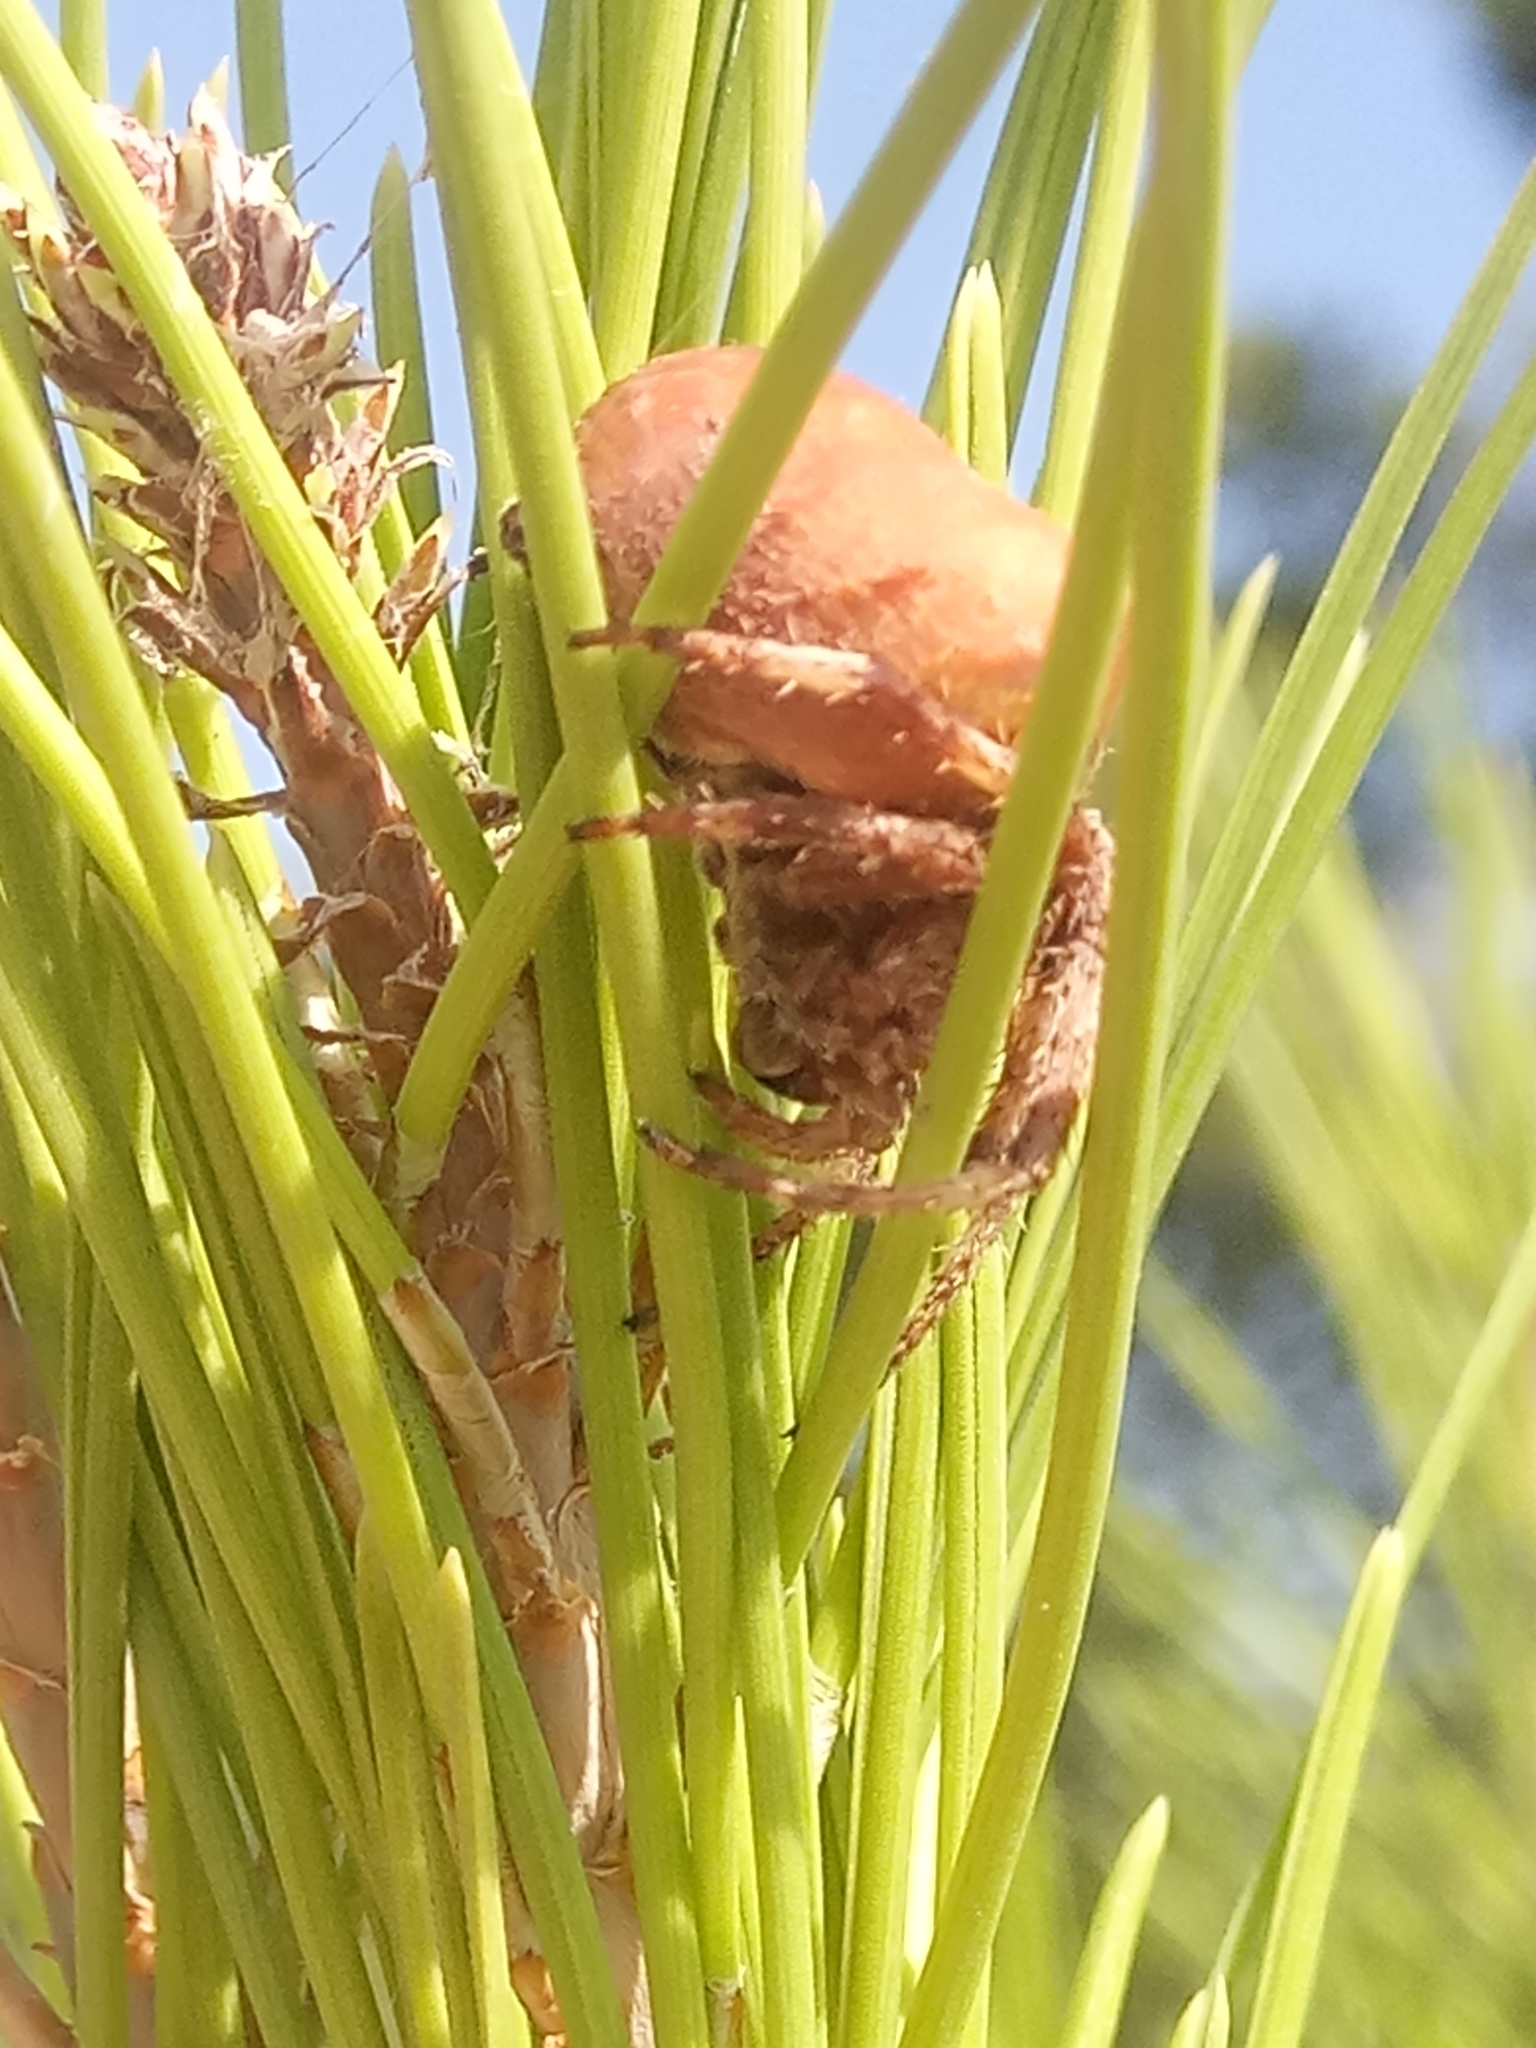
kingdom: Animalia
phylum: Arthropoda
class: Arachnida
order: Araneae
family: Araneidae
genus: Araneus
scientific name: Araneus pallidus
